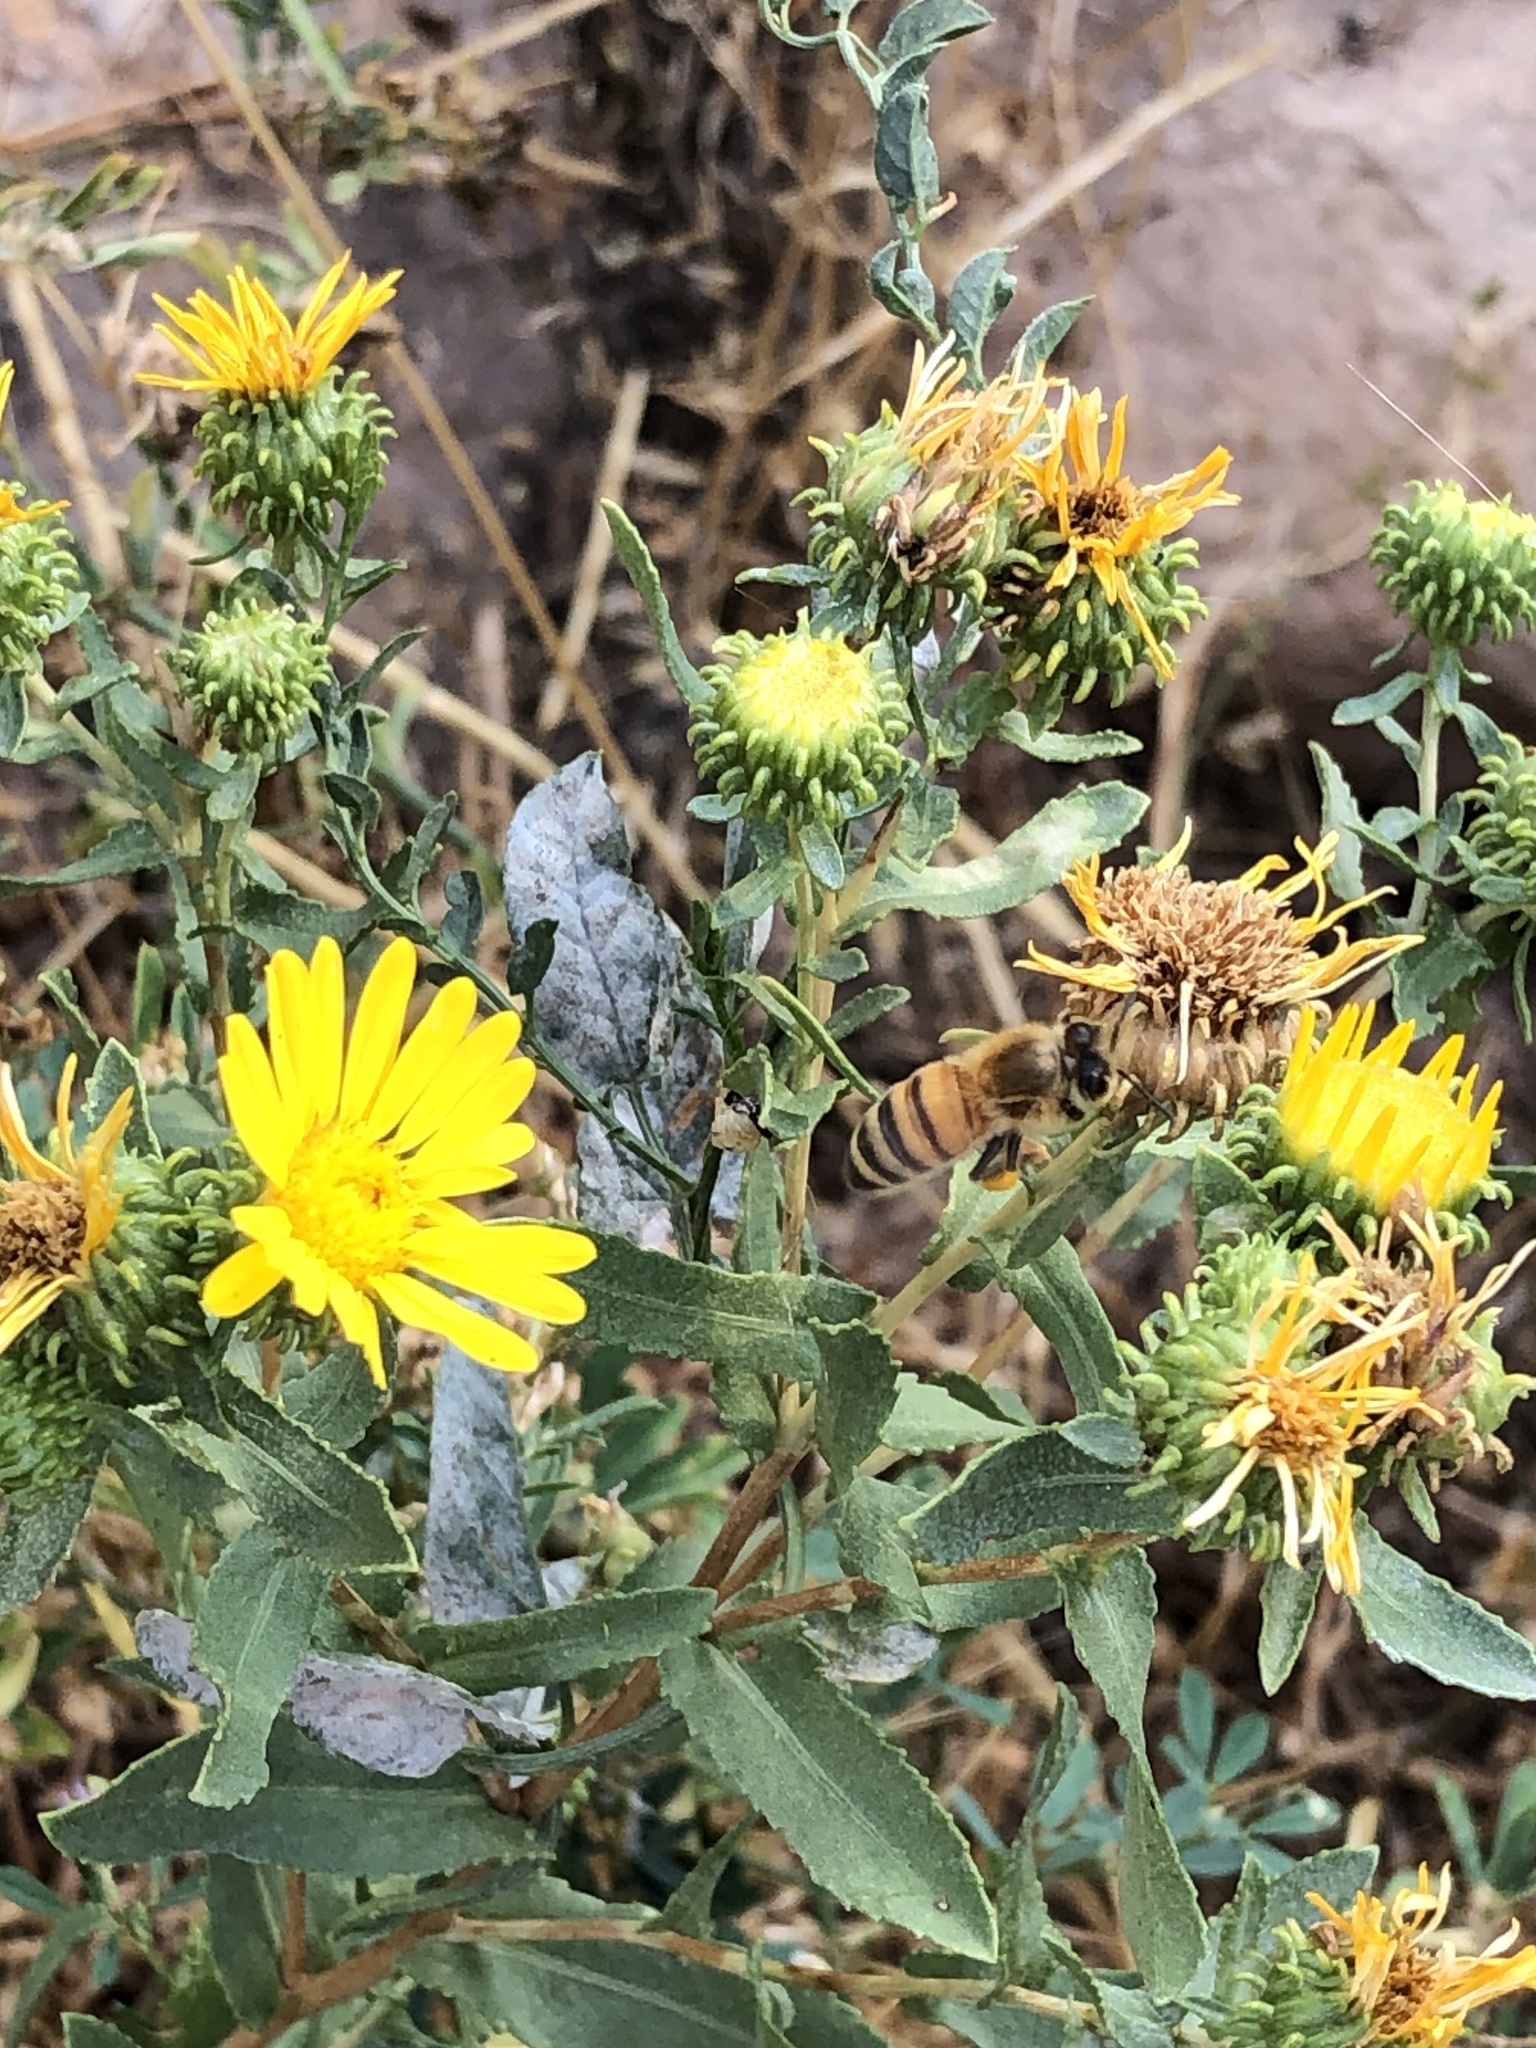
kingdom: Animalia
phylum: Arthropoda
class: Insecta
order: Hymenoptera
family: Apidae
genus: Apis
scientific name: Apis mellifera
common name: Honey bee
